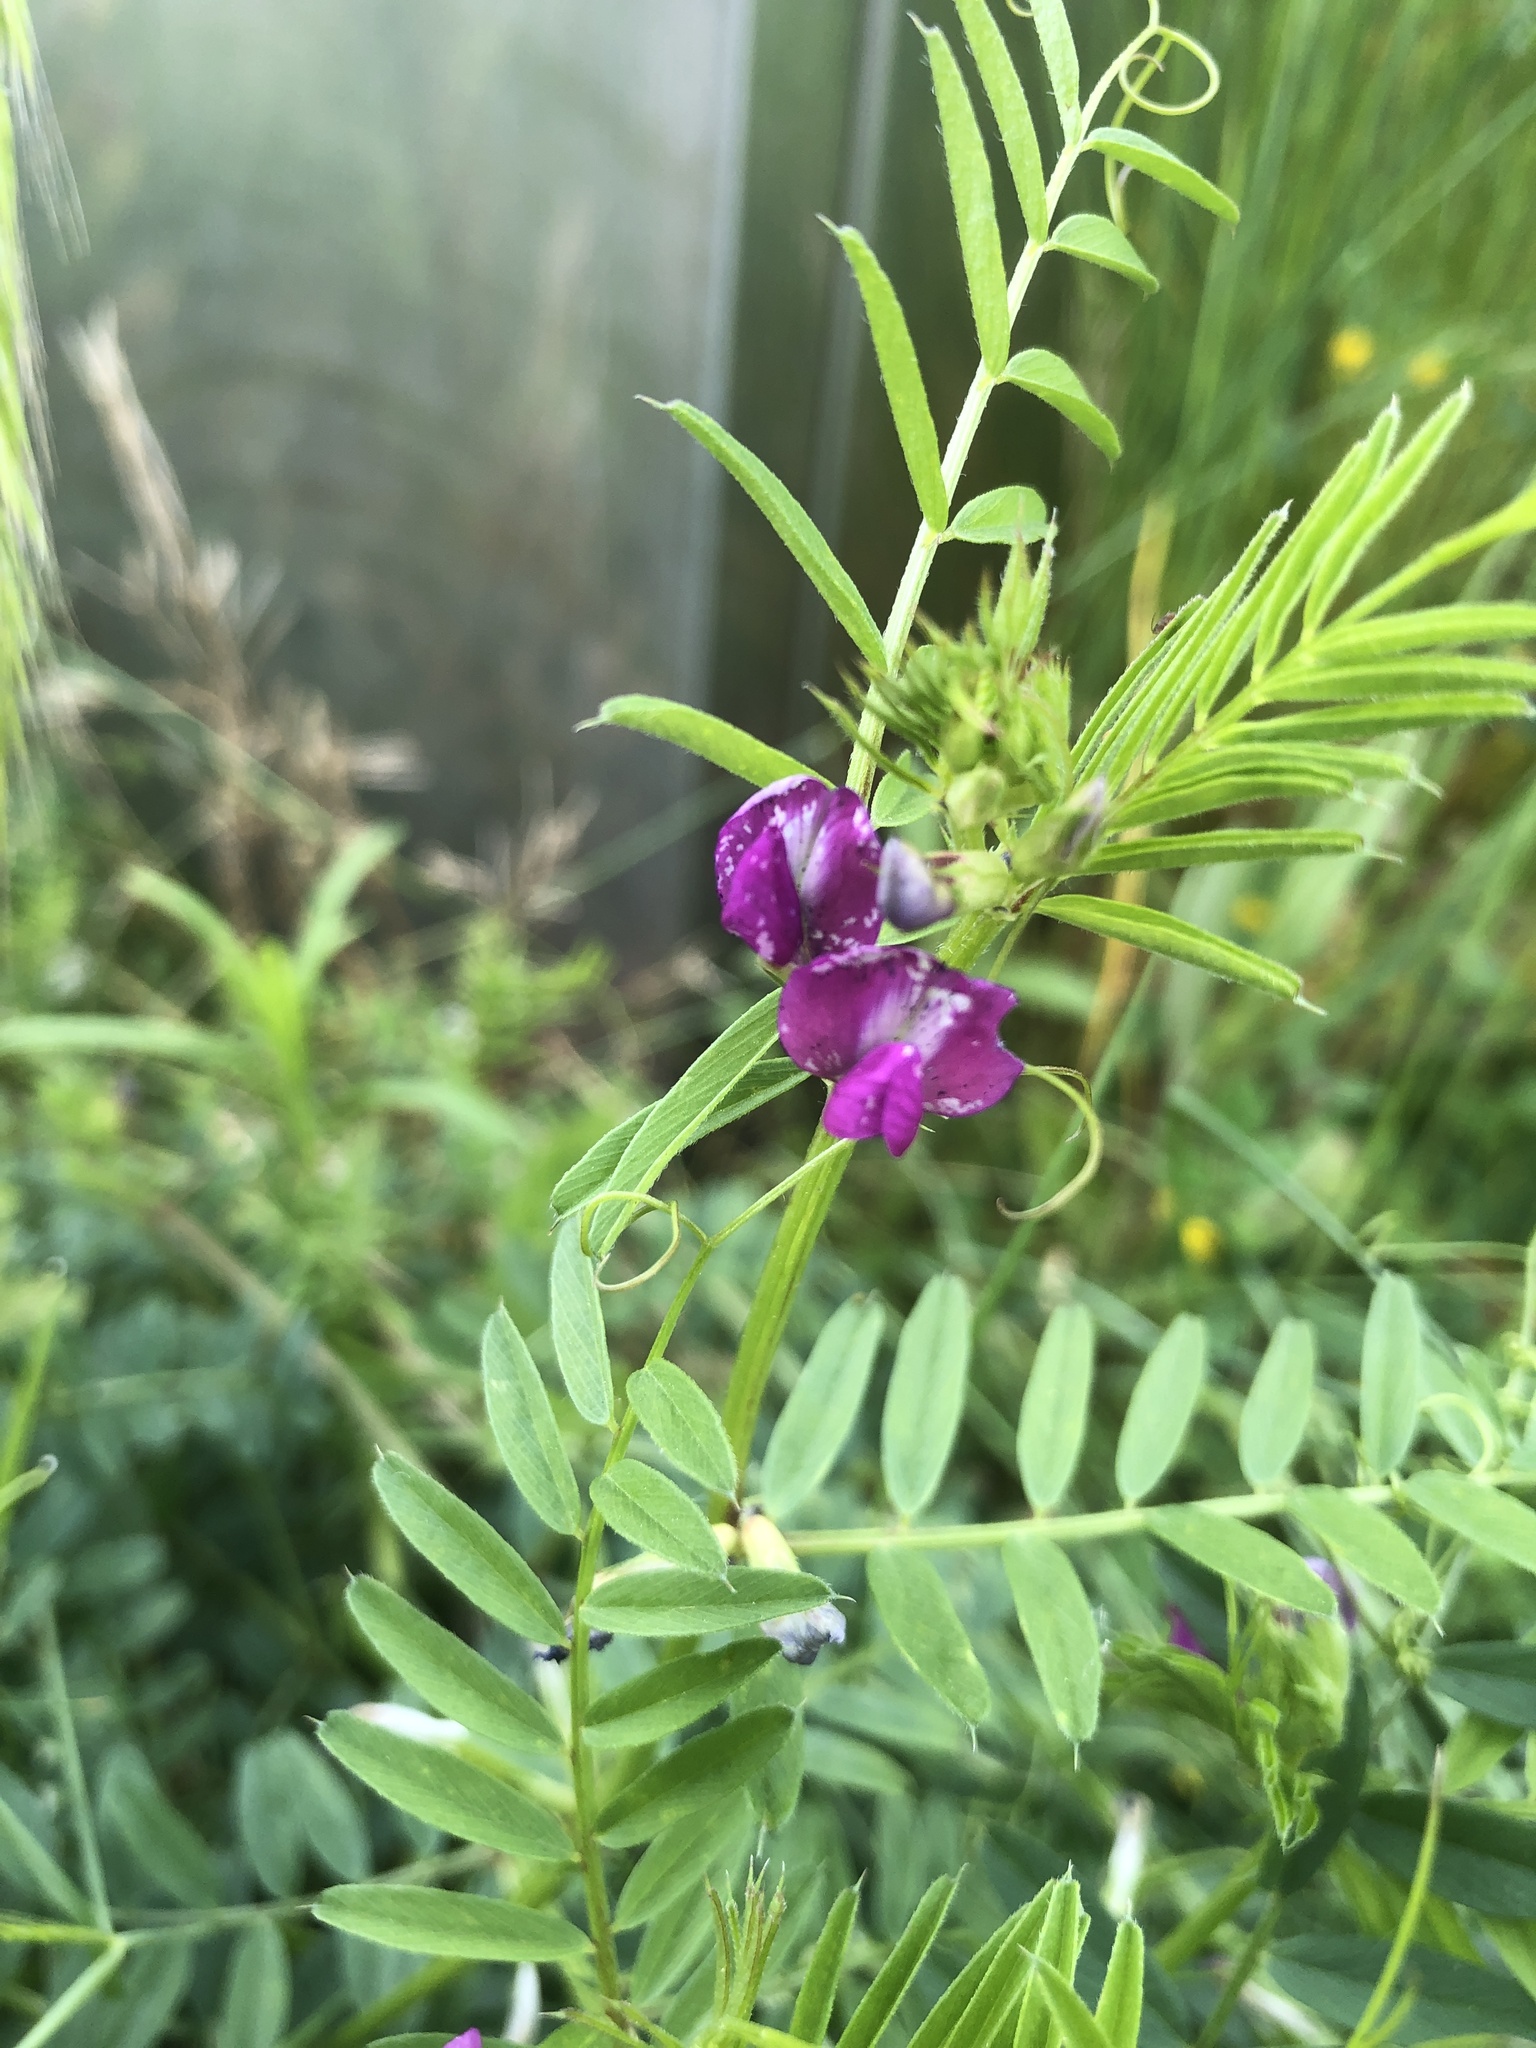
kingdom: Plantae
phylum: Tracheophyta
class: Magnoliopsida
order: Fabales
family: Fabaceae
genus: Vicia
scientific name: Vicia sativa
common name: Garden vetch
